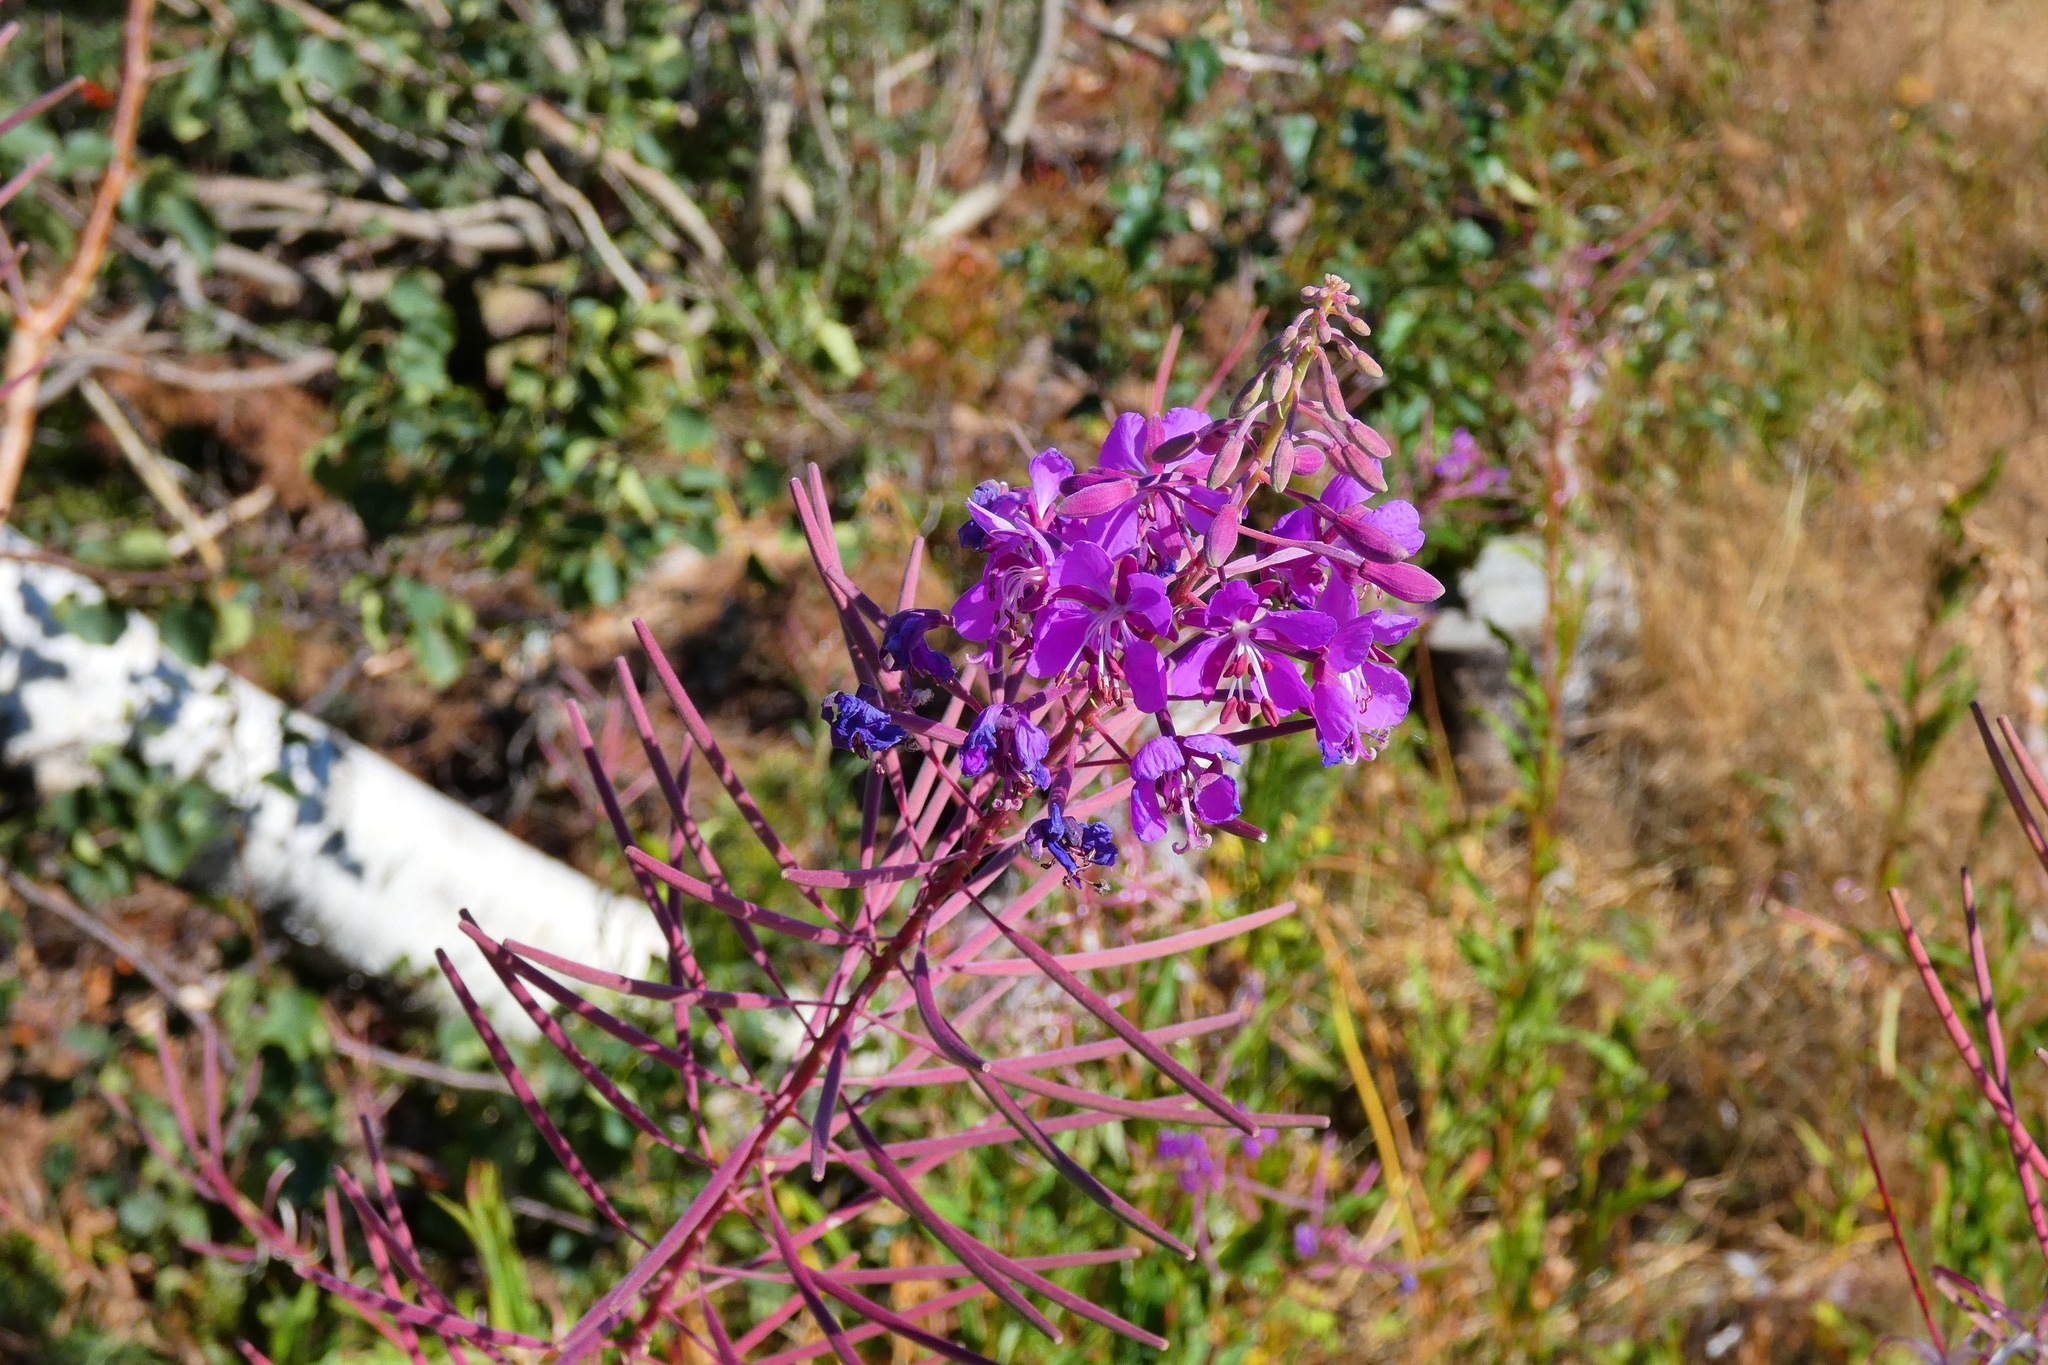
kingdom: Plantae
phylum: Tracheophyta
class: Magnoliopsida
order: Myrtales
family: Onagraceae
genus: Chamaenerion
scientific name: Chamaenerion angustifolium
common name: Fireweed
